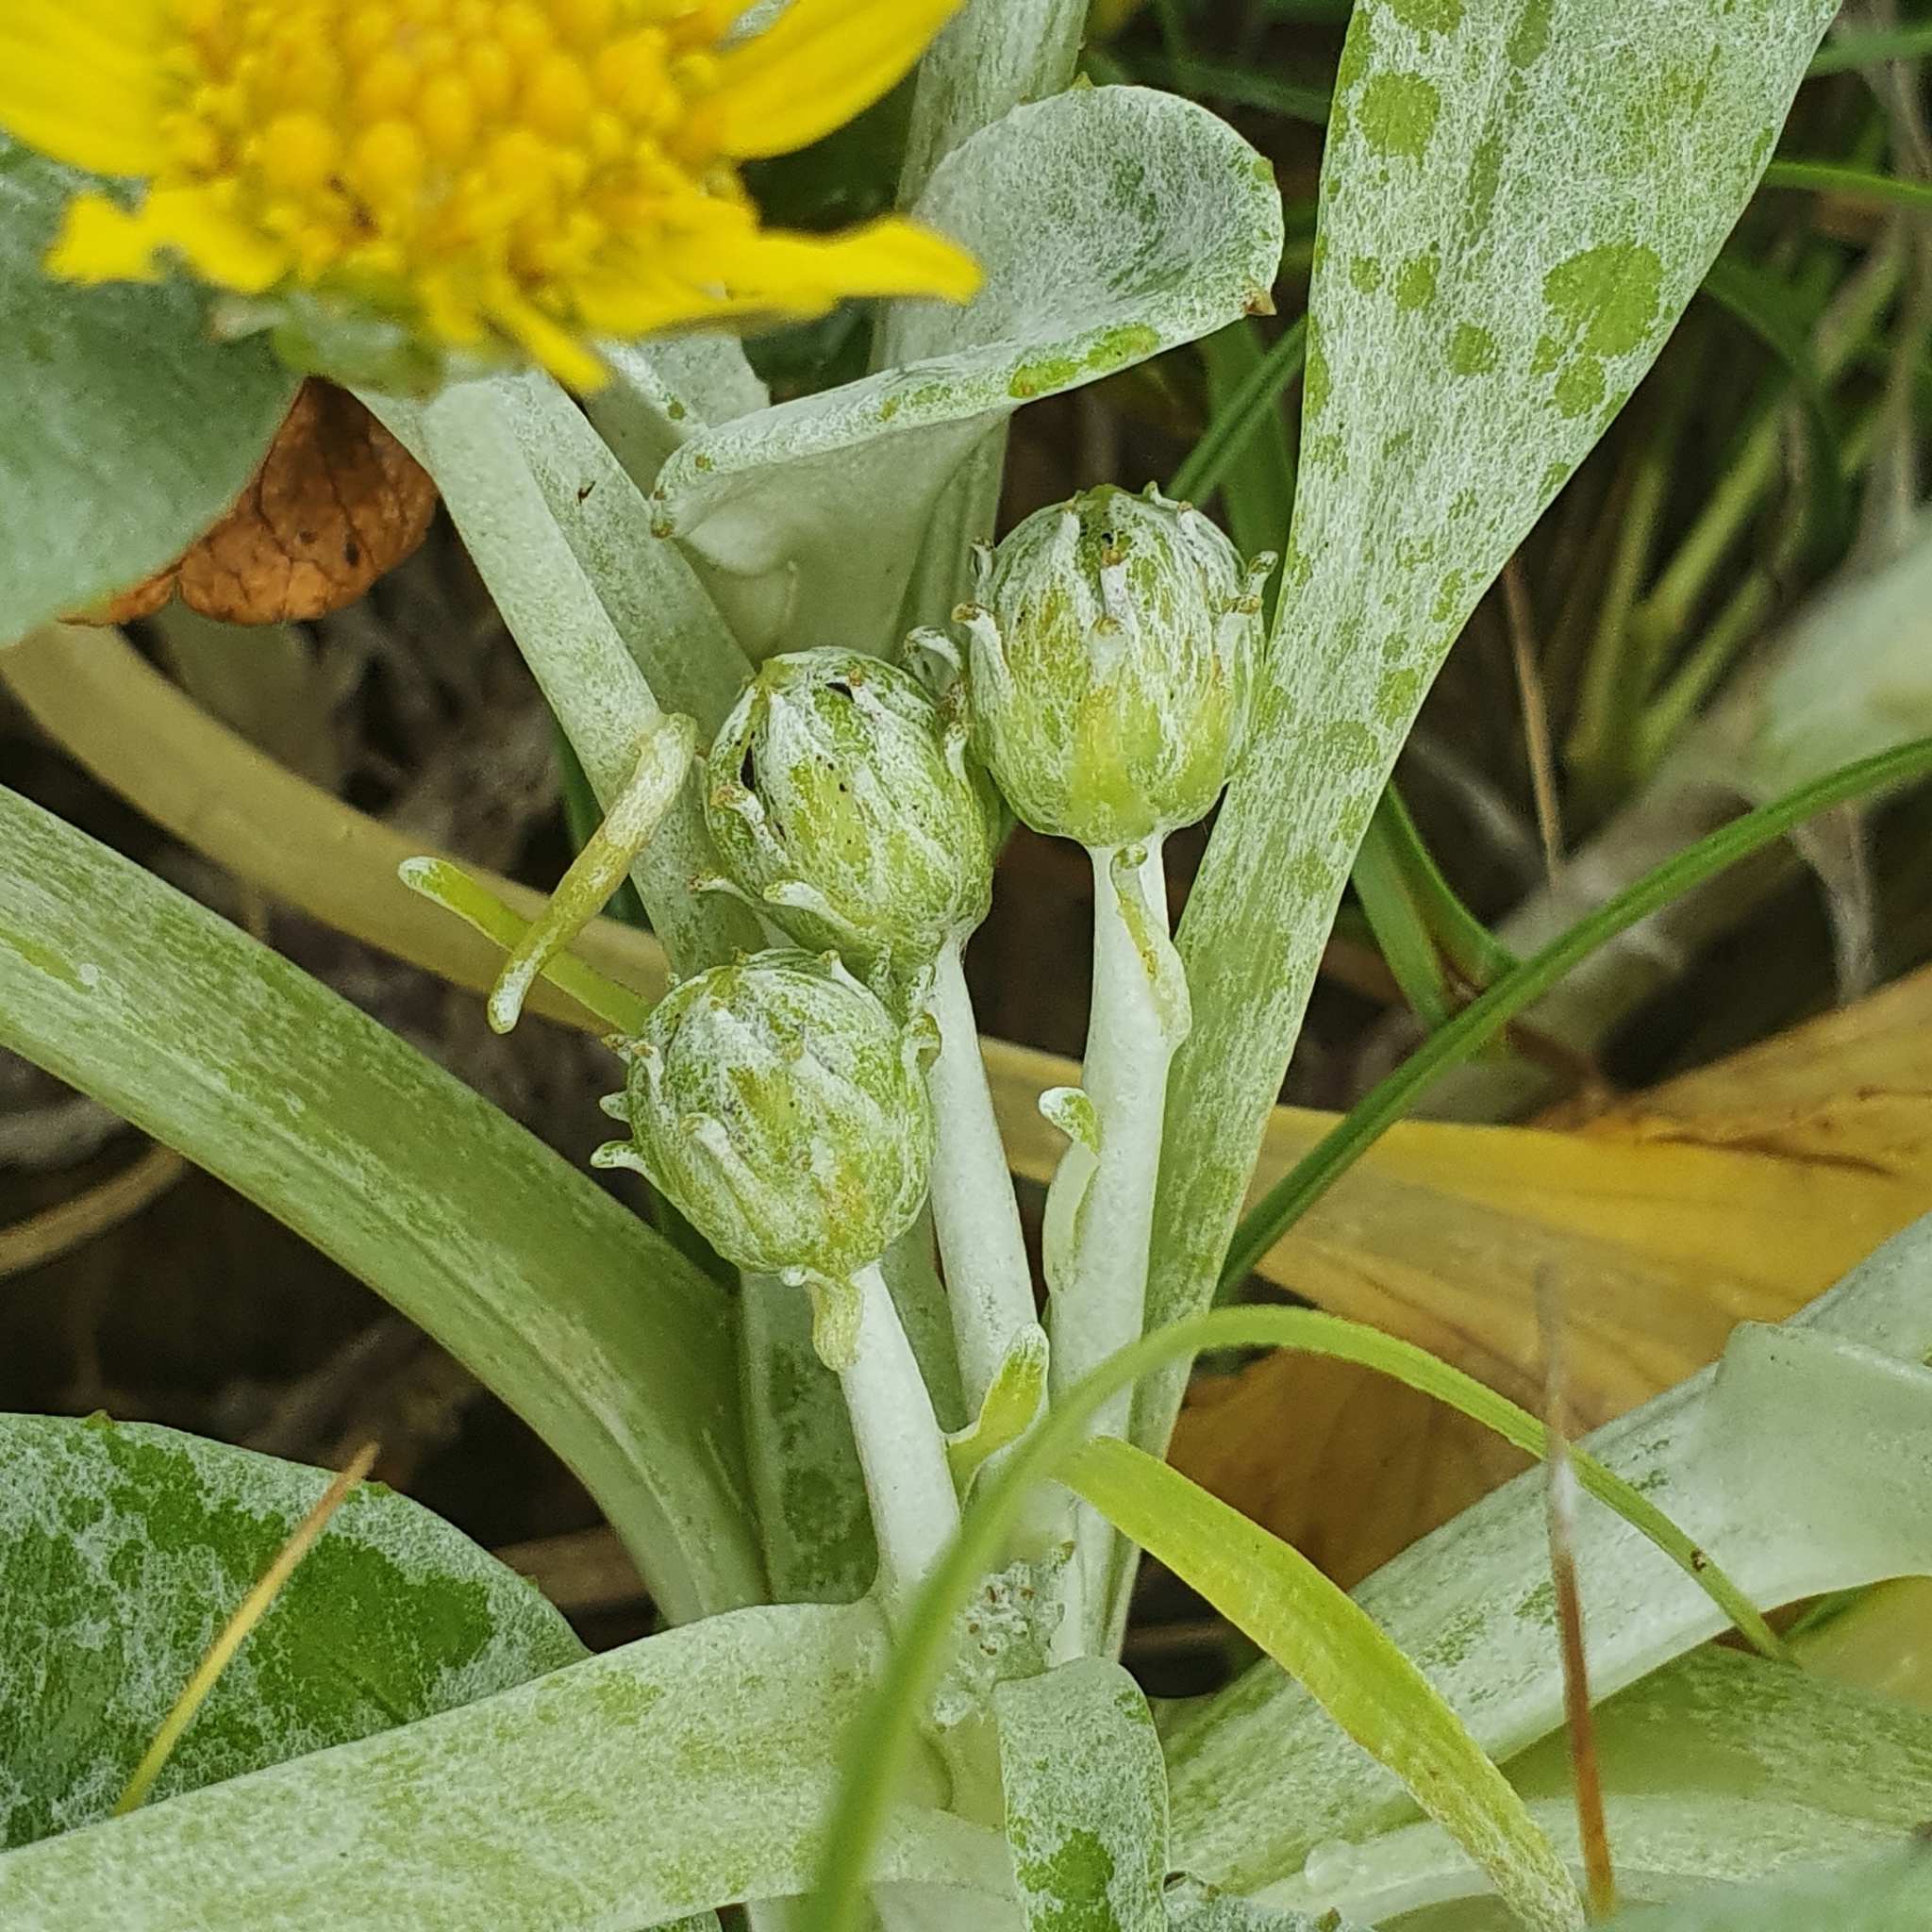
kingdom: Plantae
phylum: Tracheophyta
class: Magnoliopsida
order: Asterales
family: Asteraceae
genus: Arctotheca
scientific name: Arctotheca populifolia
